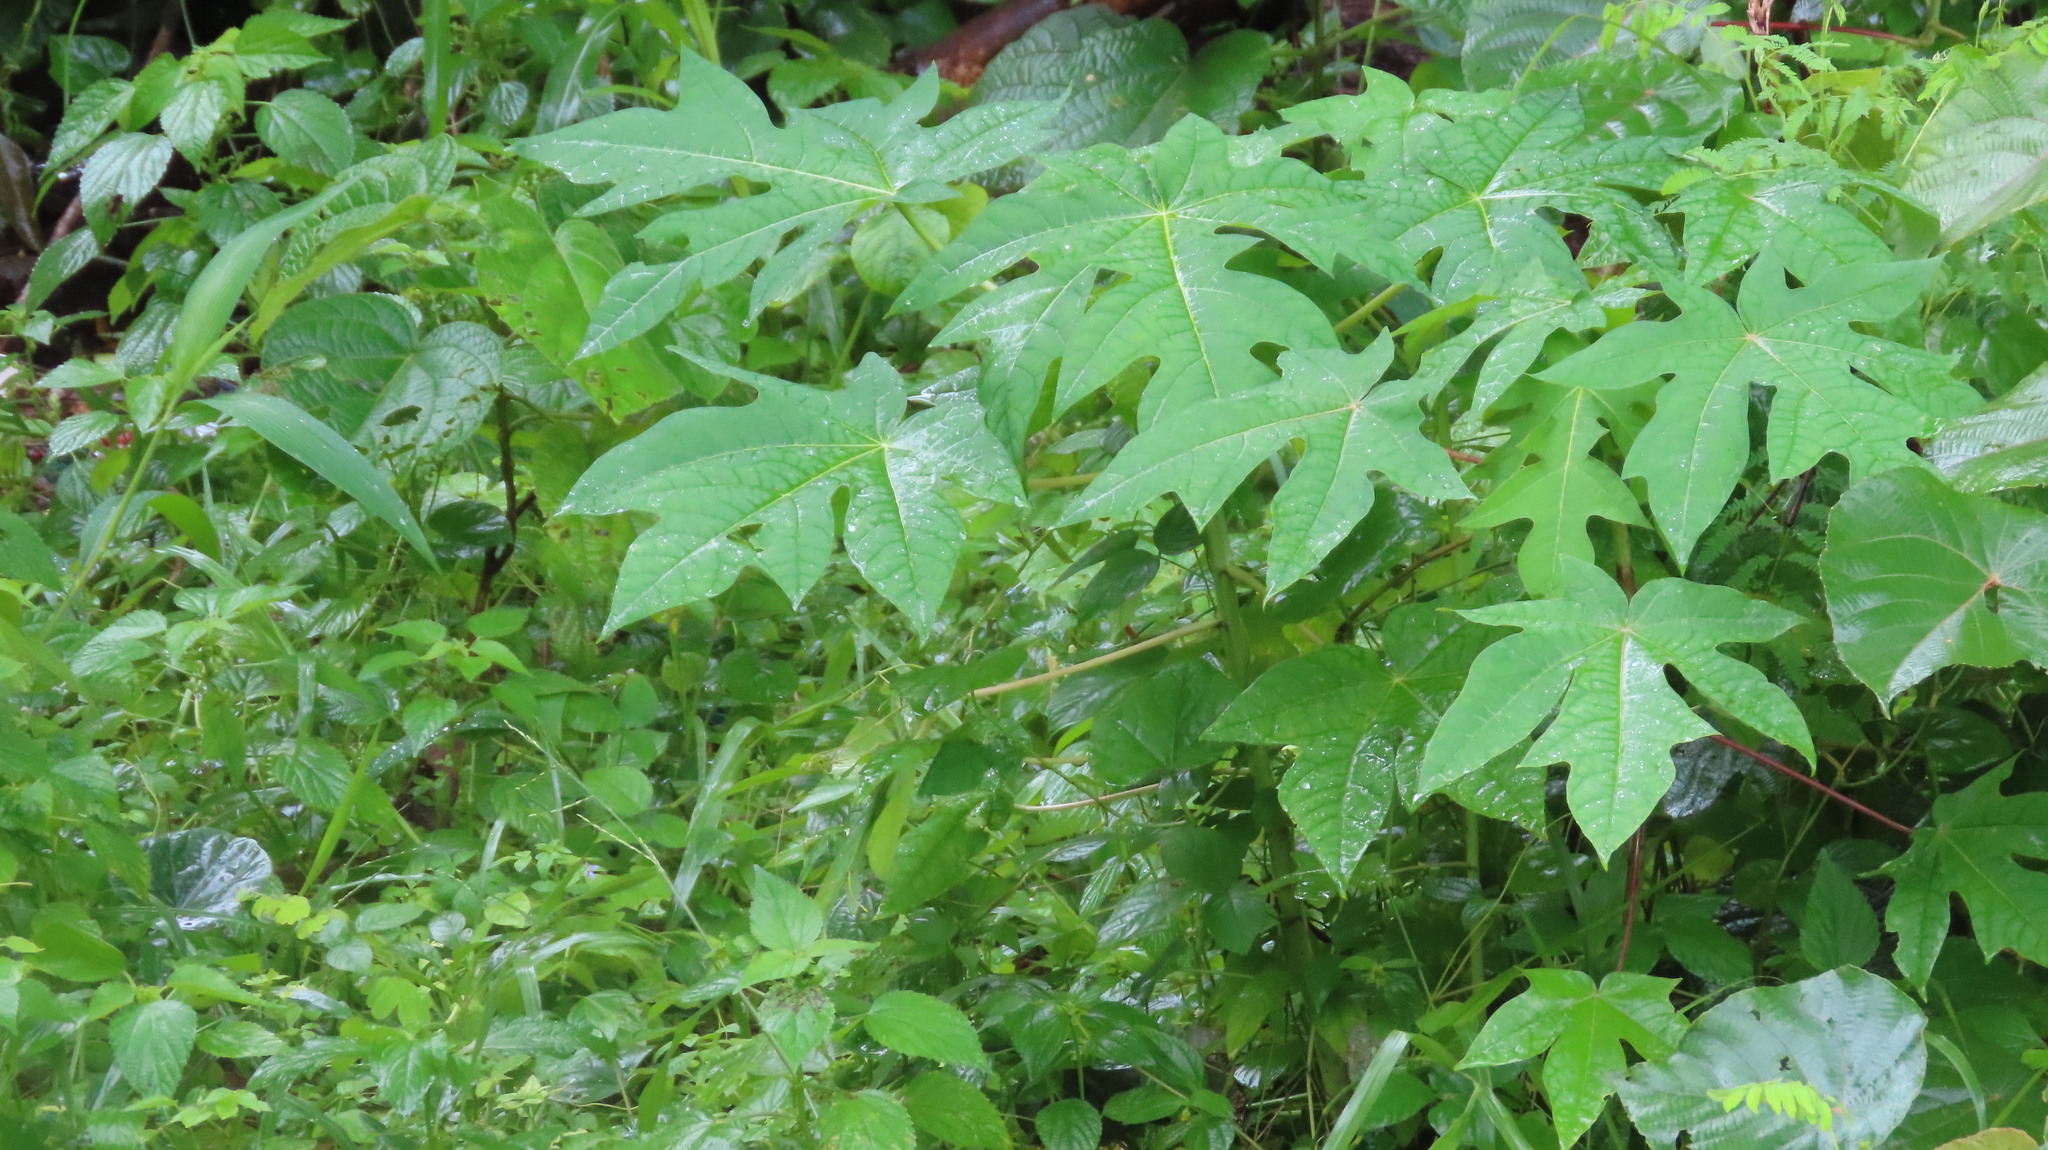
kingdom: Plantae
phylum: Tracheophyta
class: Magnoliopsida
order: Brassicales
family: Caricaceae
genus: Carica
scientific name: Carica papaya
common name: Papaya
